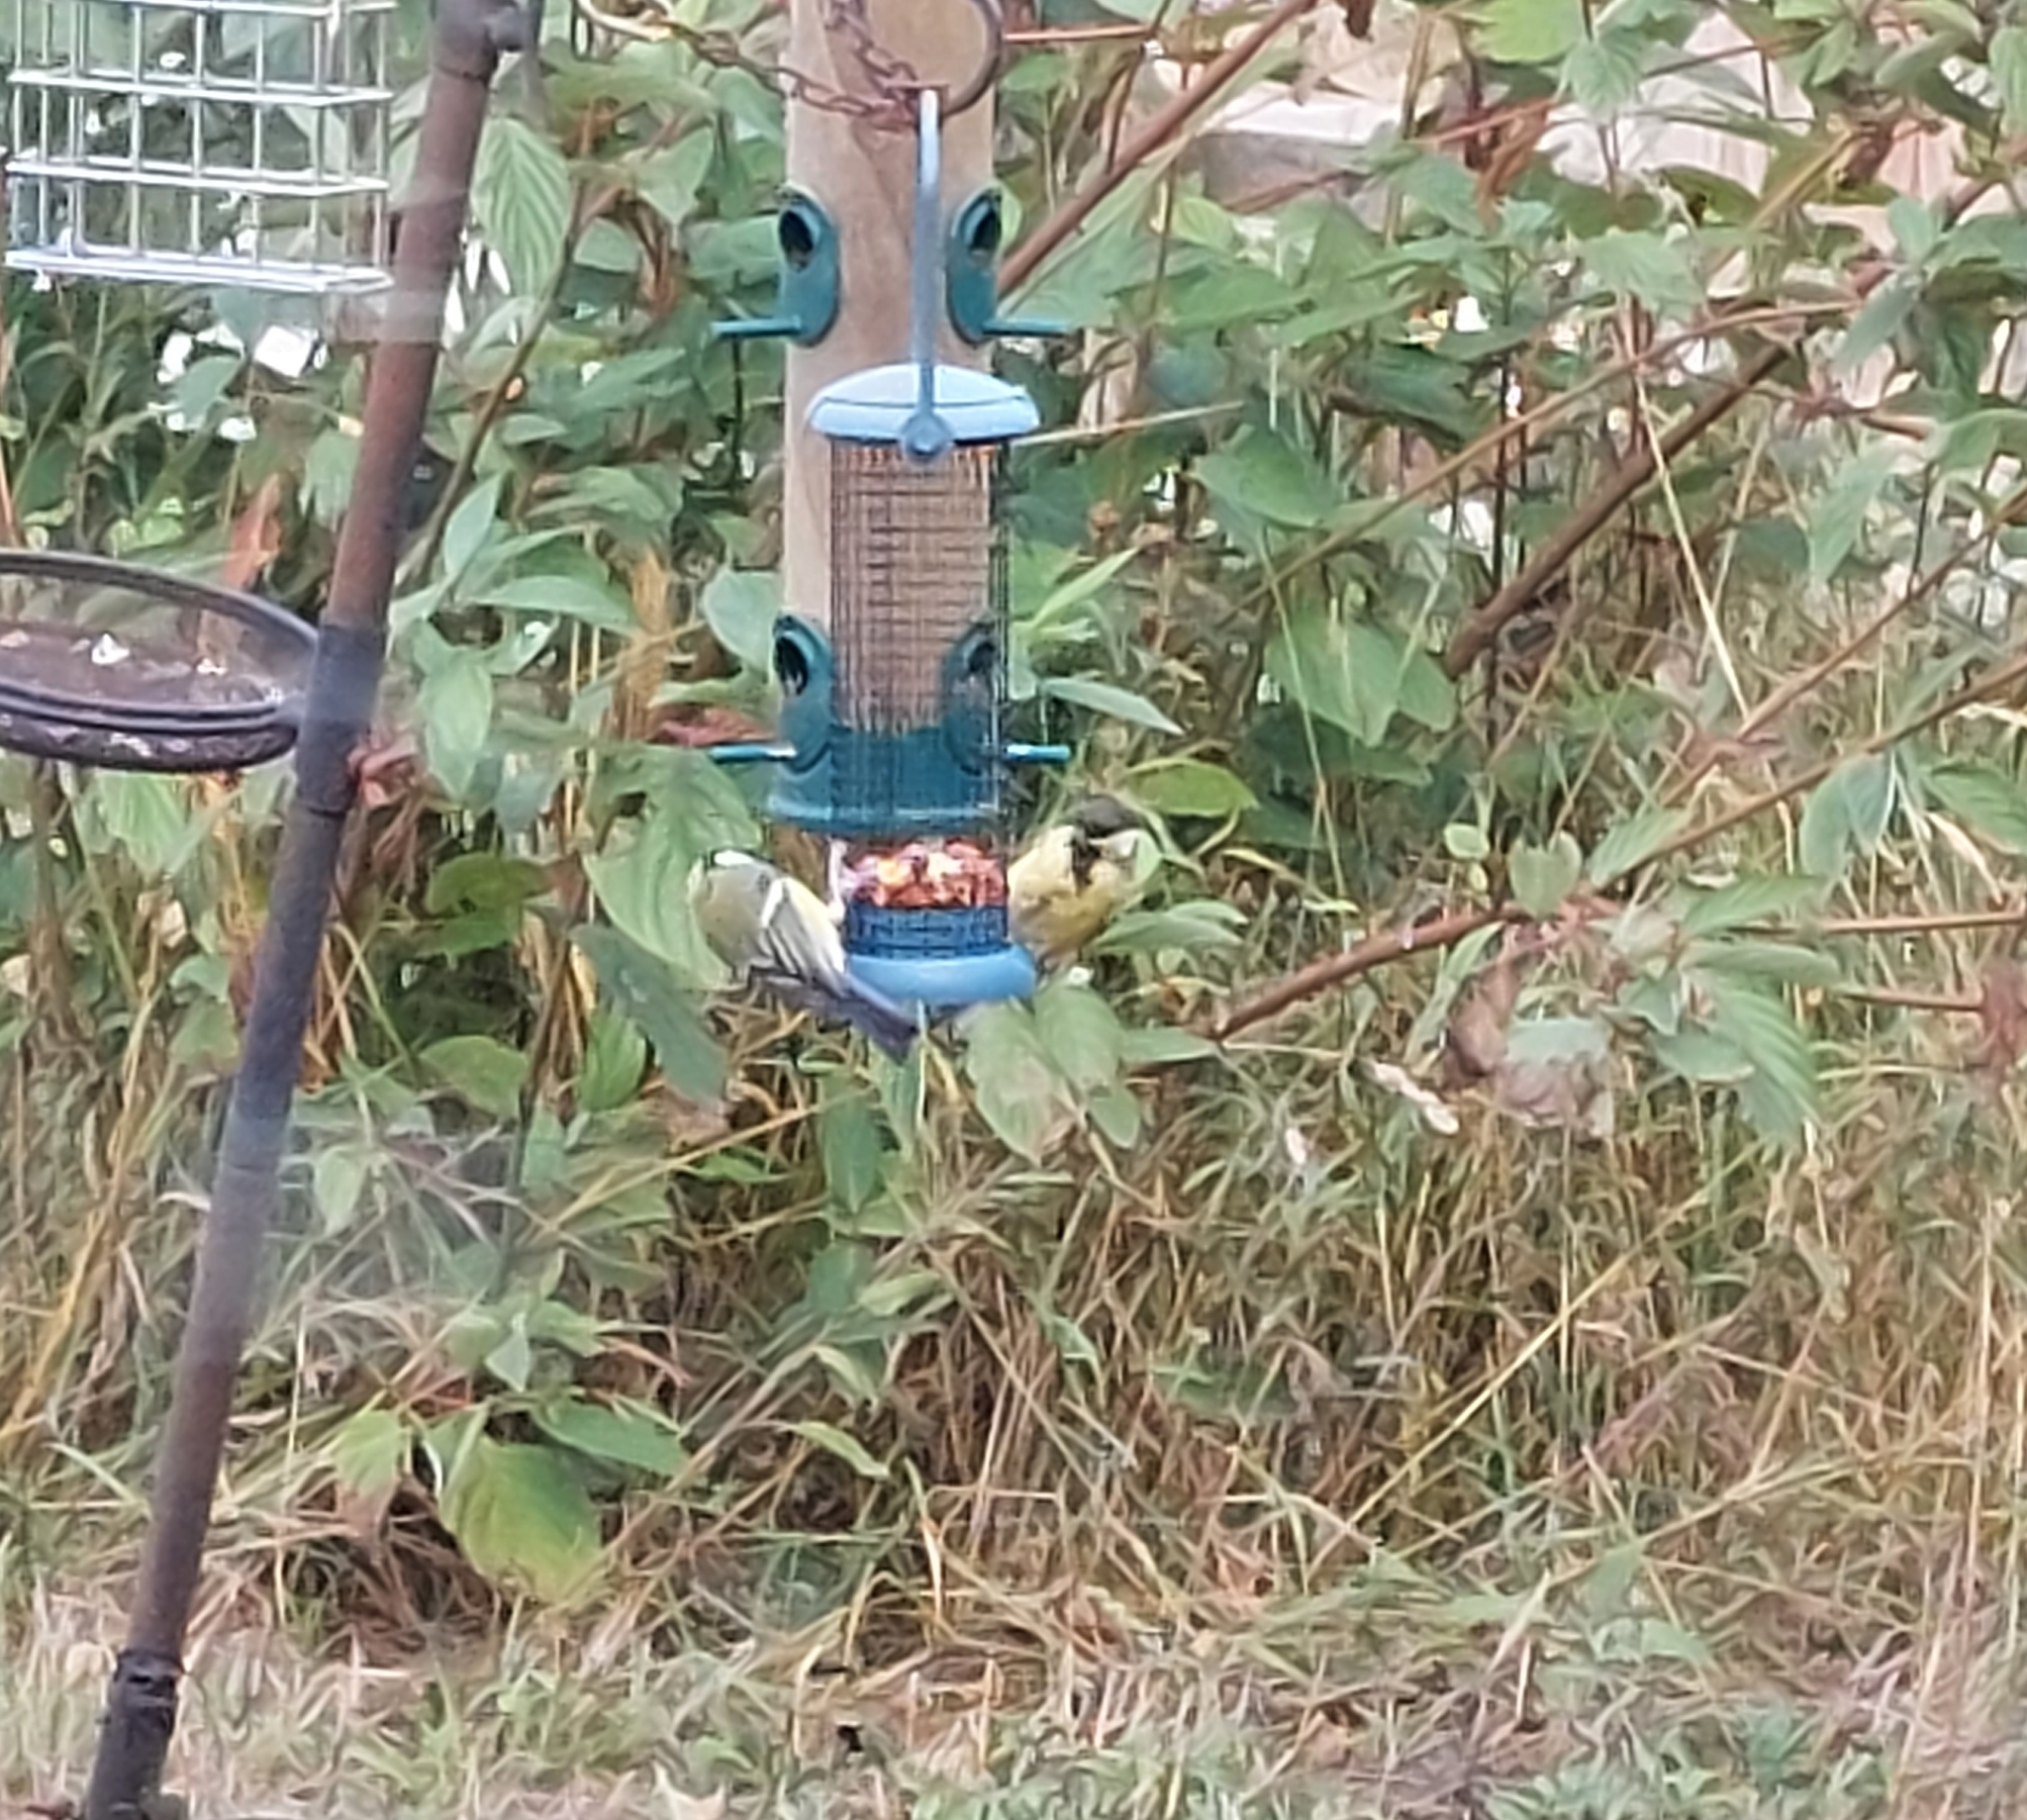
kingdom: Animalia
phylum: Chordata
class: Aves
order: Passeriformes
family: Paridae
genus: Parus
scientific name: Parus major
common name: Great tit
